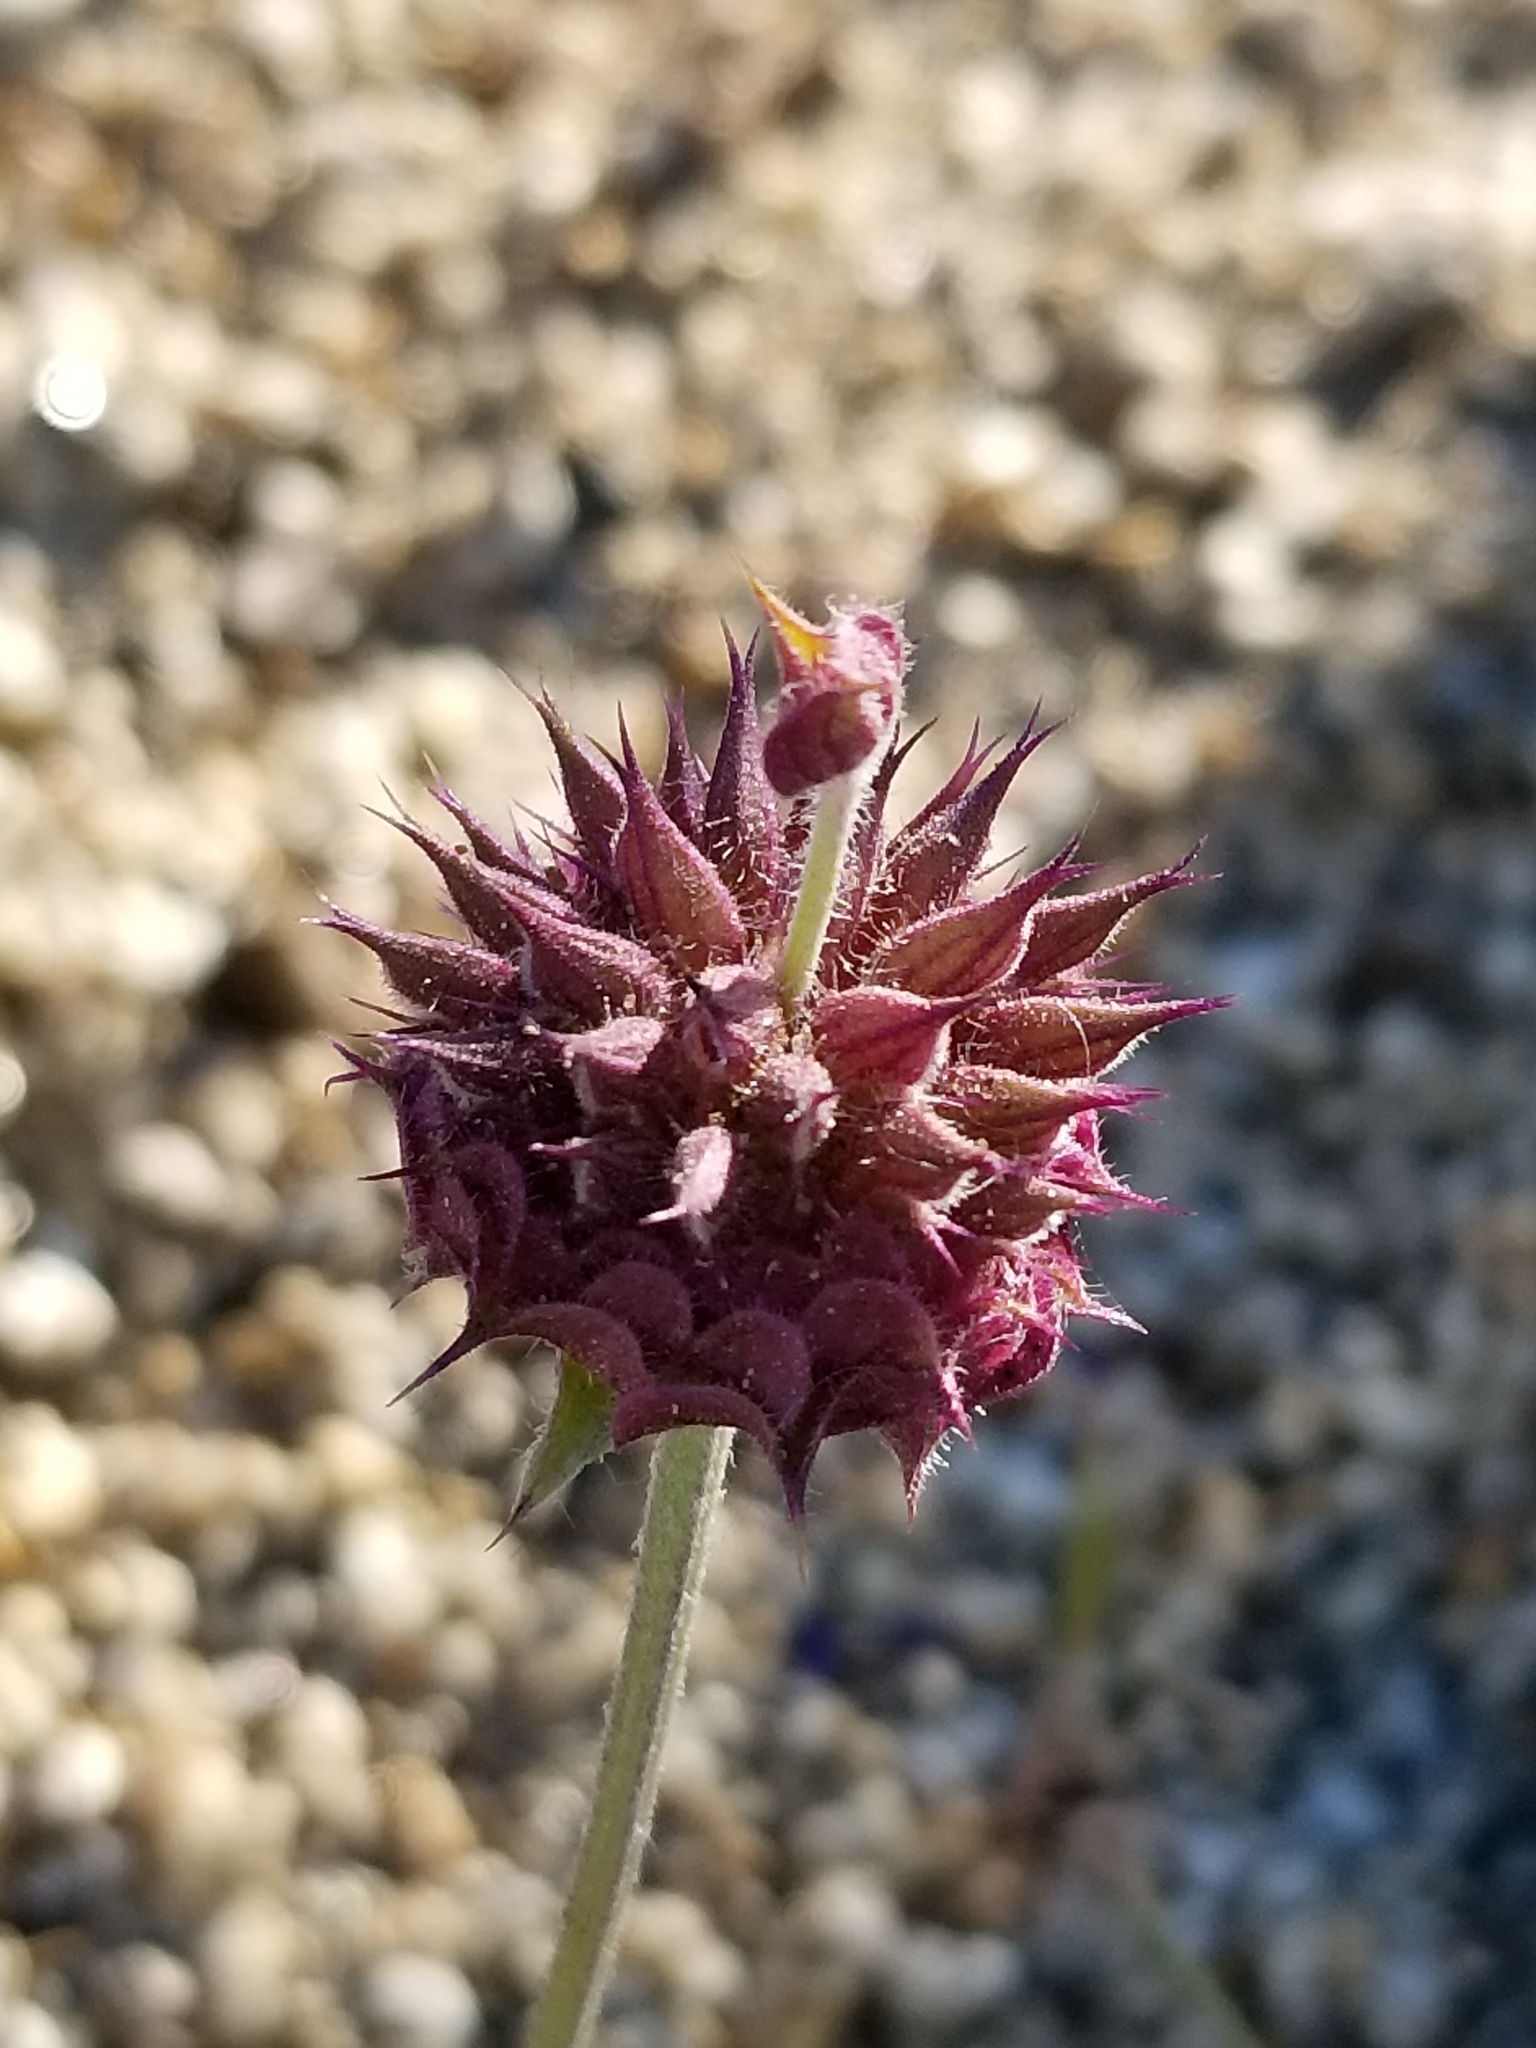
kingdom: Plantae
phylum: Tracheophyta
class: Magnoliopsida
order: Lamiales
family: Lamiaceae
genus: Salvia
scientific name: Salvia columbariae
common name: Chia
